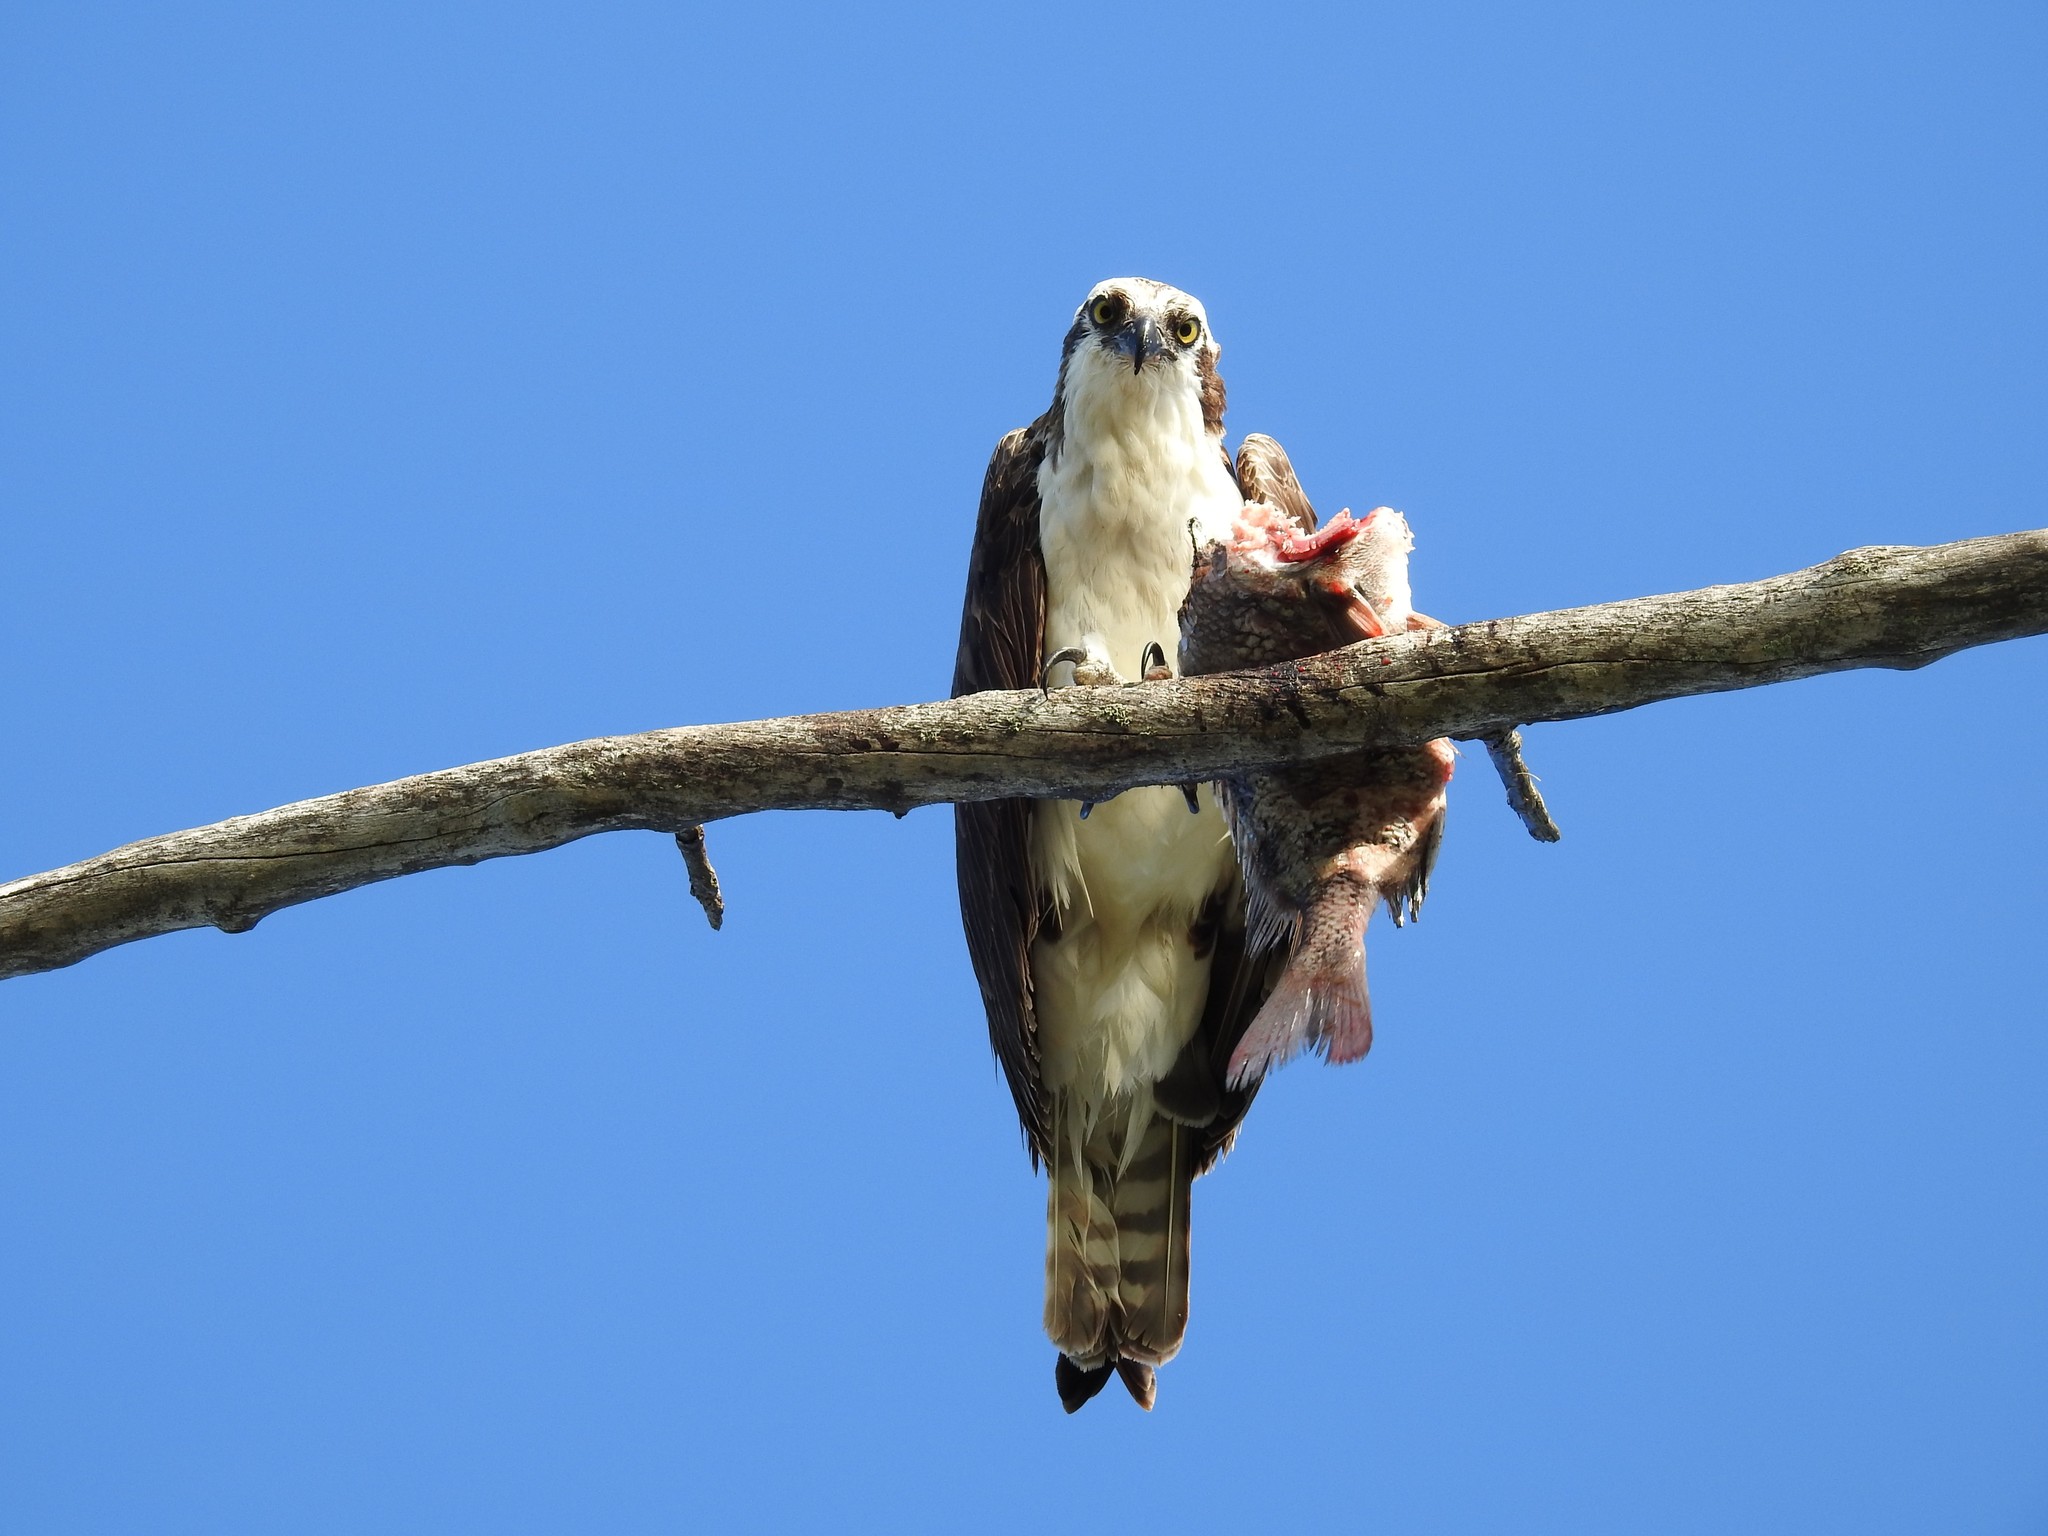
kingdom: Animalia
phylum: Chordata
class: Aves
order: Accipitriformes
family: Pandionidae
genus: Pandion
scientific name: Pandion haliaetus
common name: Osprey
